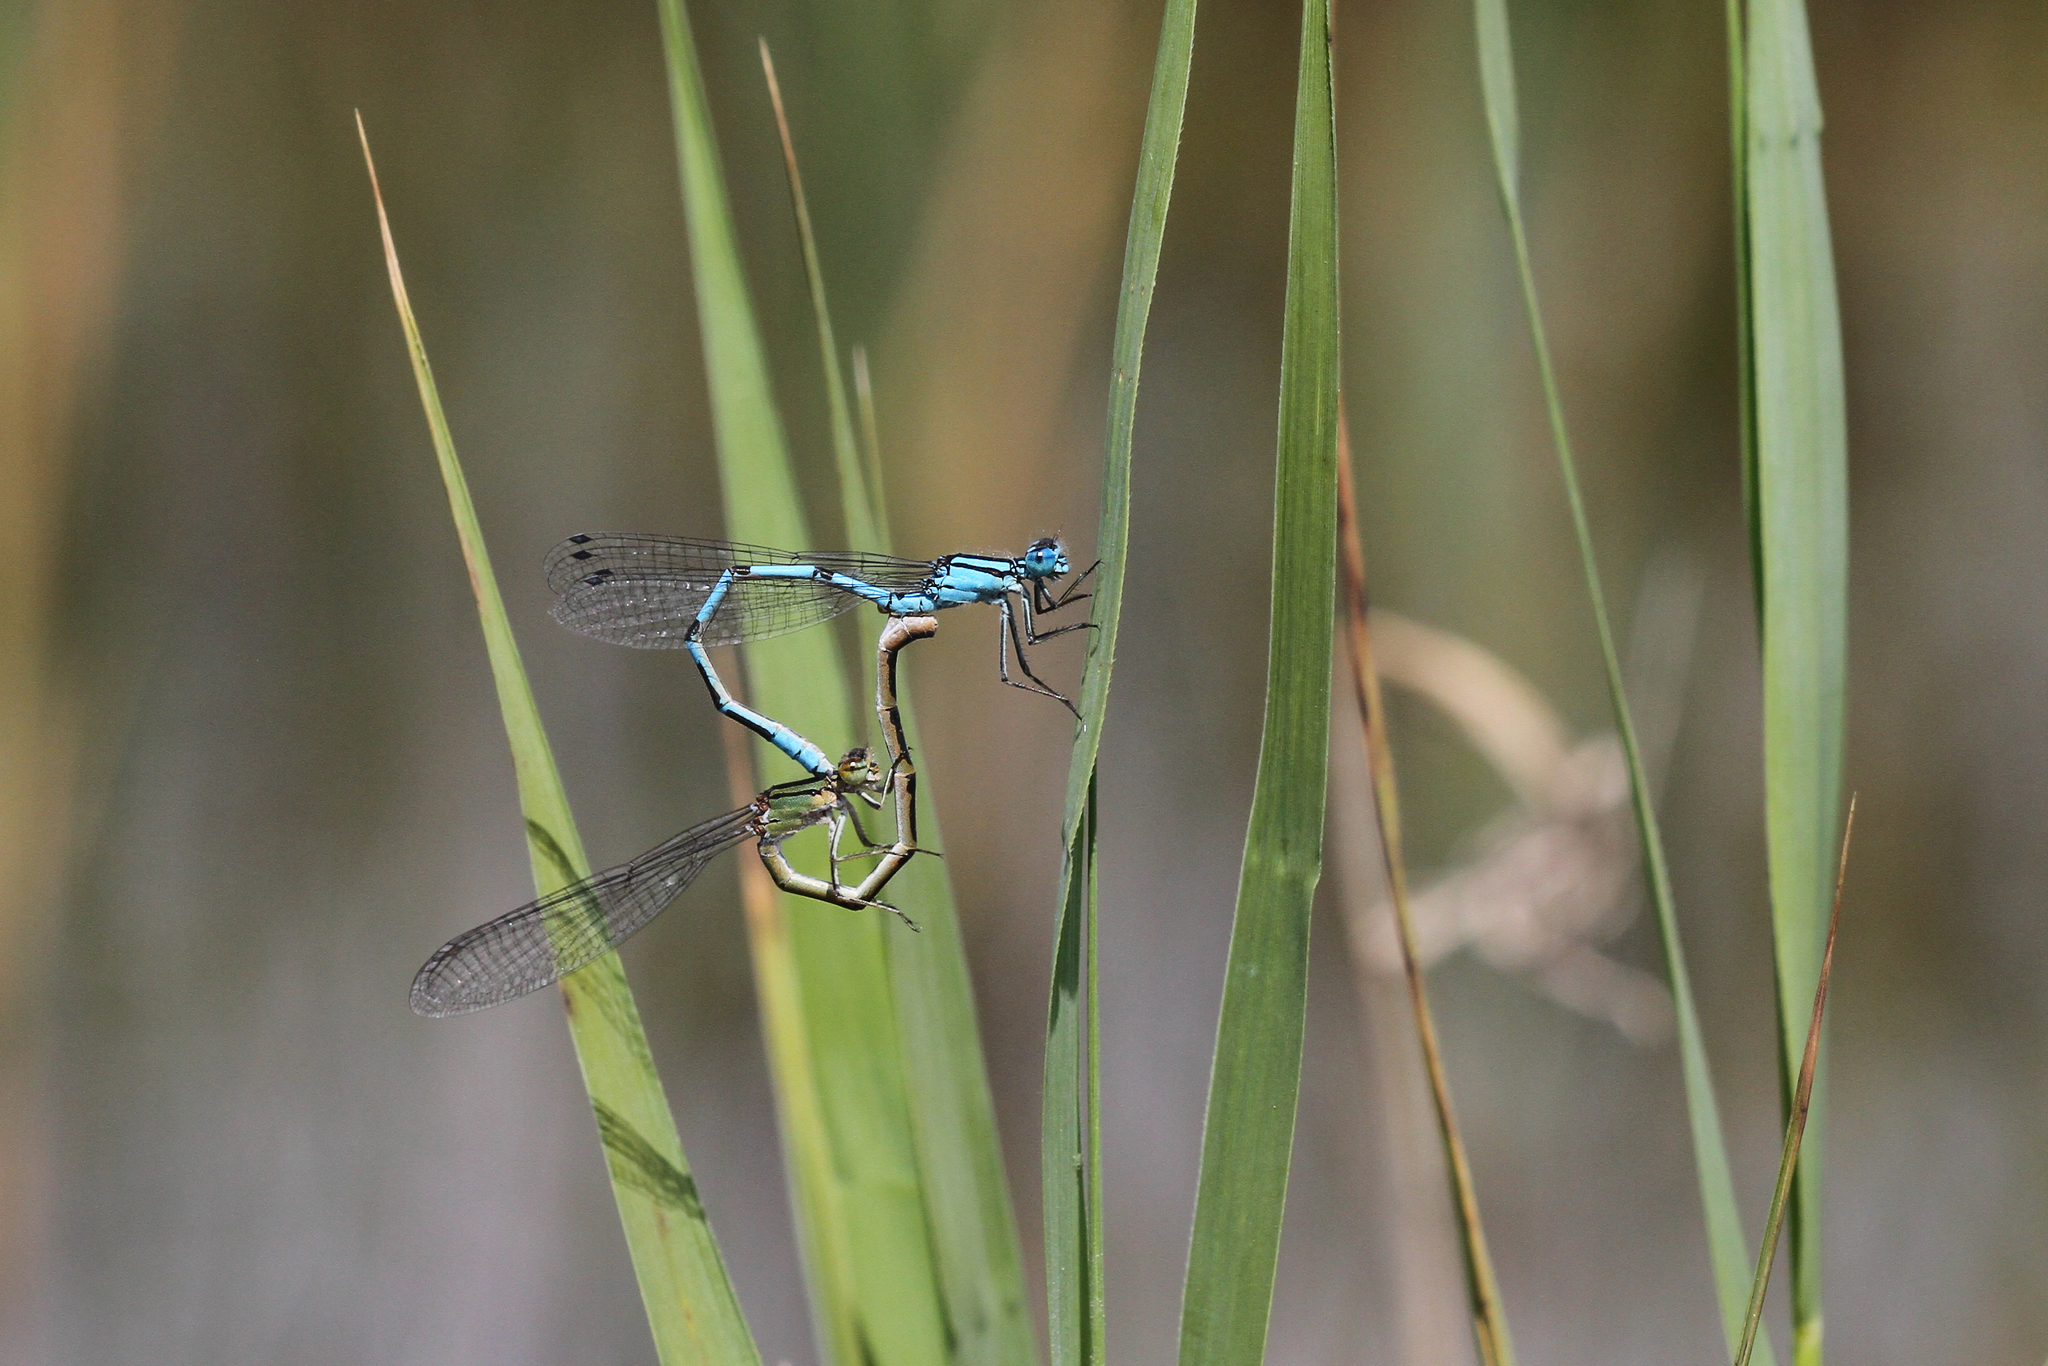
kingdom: Animalia
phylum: Arthropoda
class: Insecta
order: Odonata
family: Coenagrionidae
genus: Enallagma
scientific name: Enallagma cyathigerum
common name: Common blue damselfly
